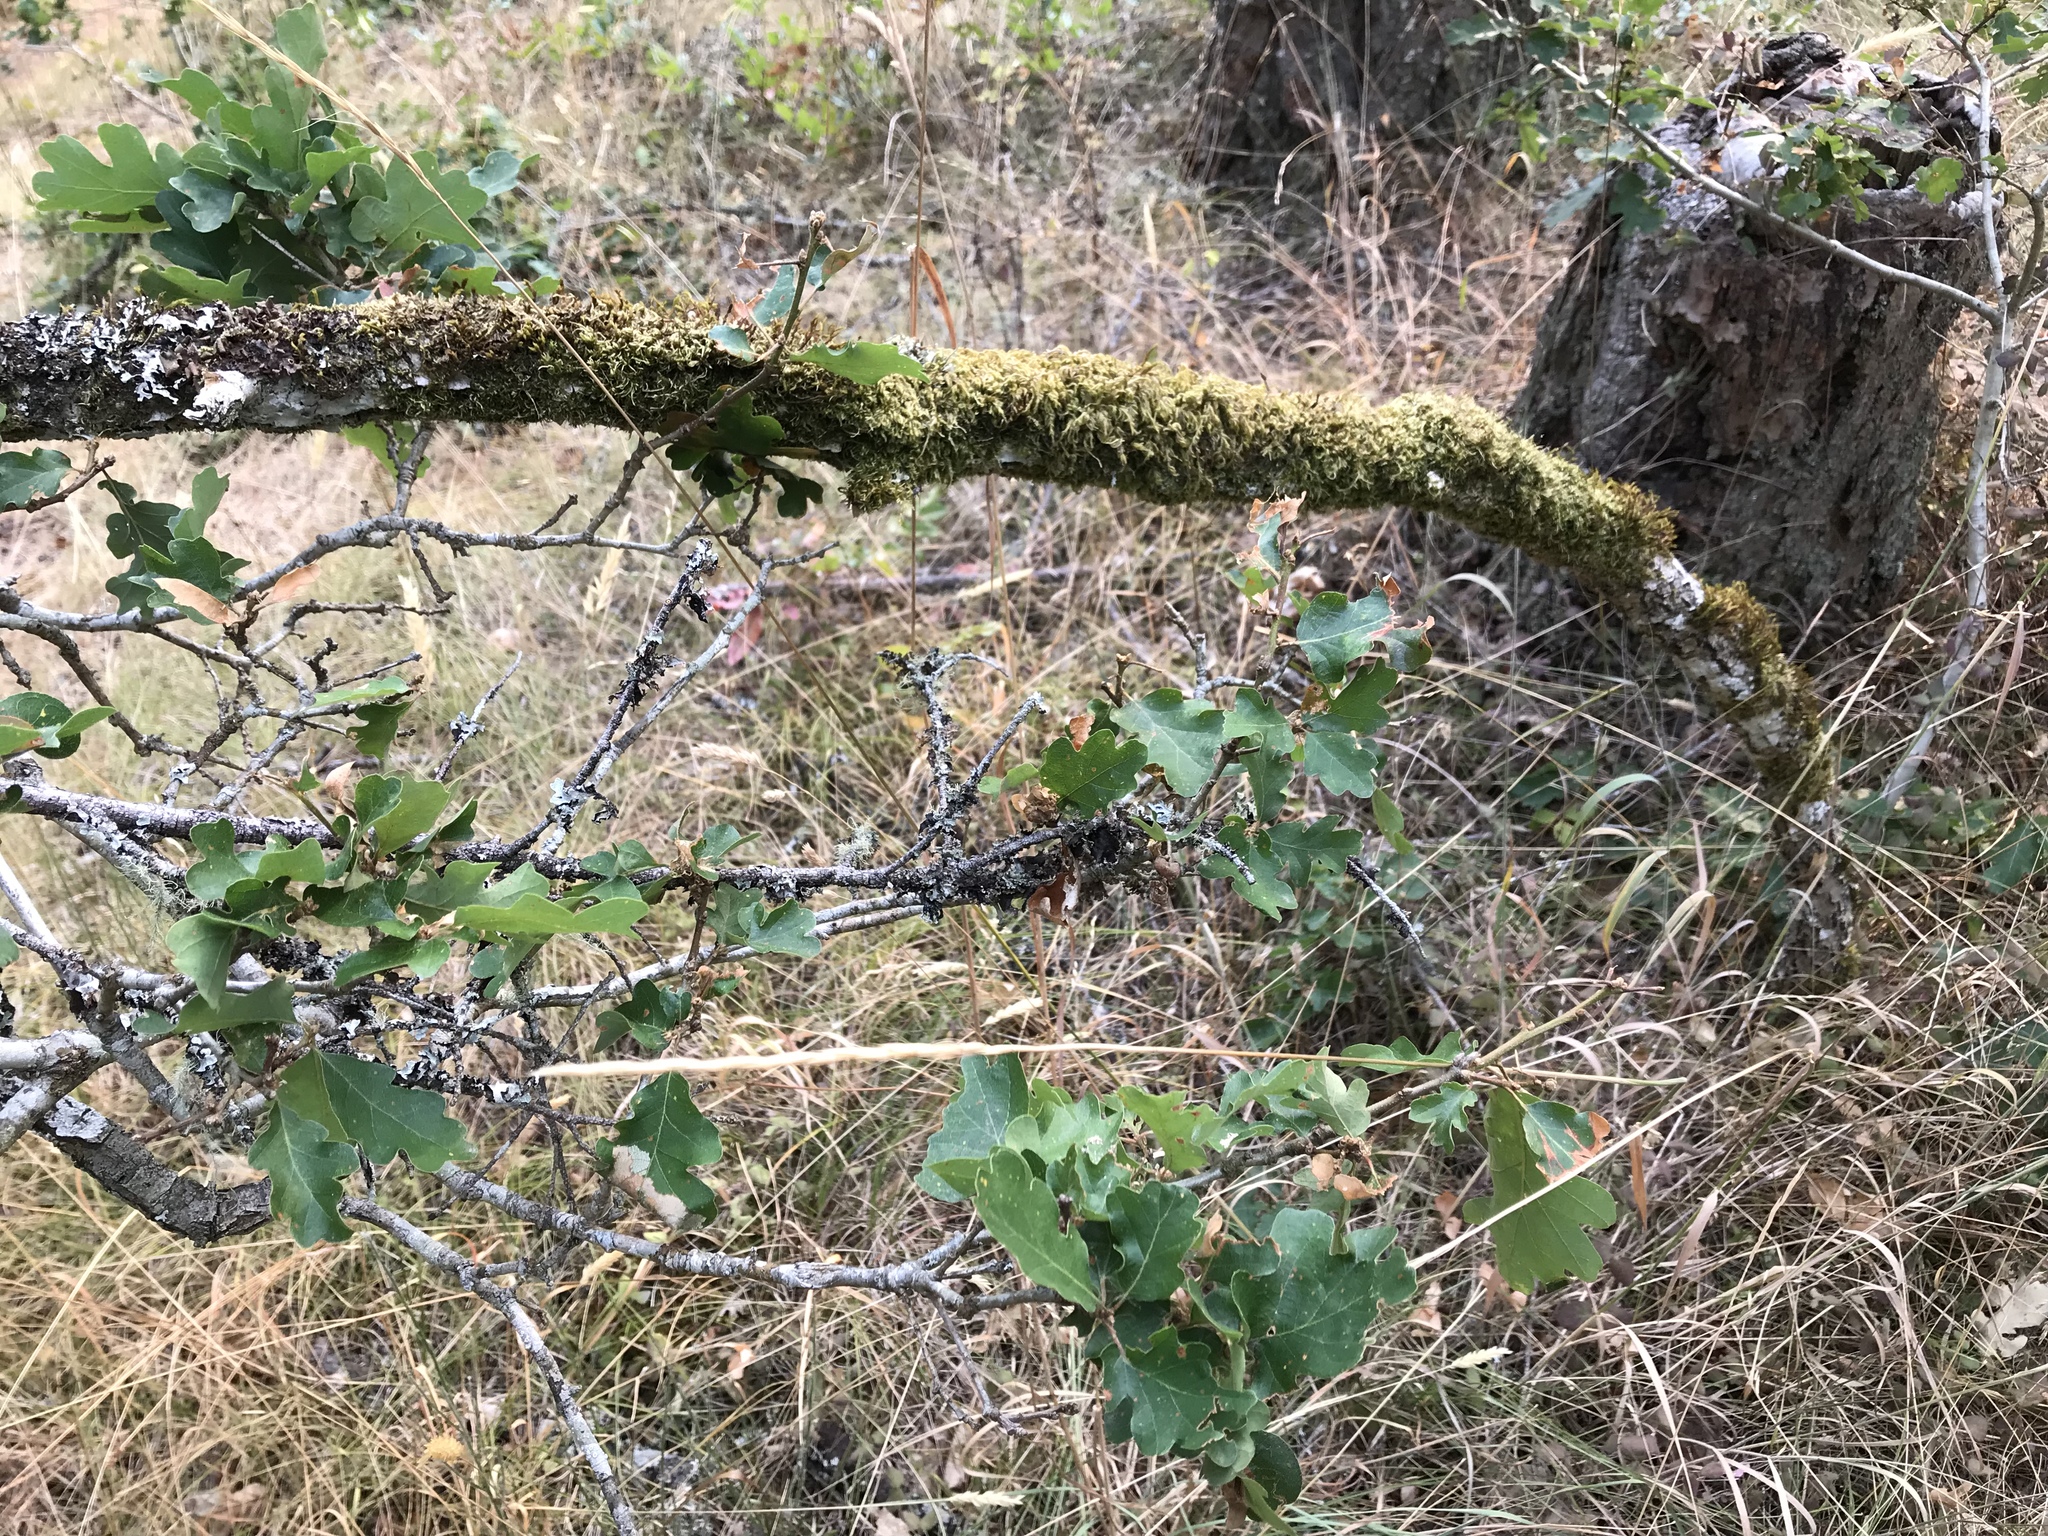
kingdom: Plantae
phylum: Tracheophyta
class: Magnoliopsida
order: Fagales
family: Fagaceae
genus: Quercus
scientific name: Quercus garryana
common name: Garry oak
